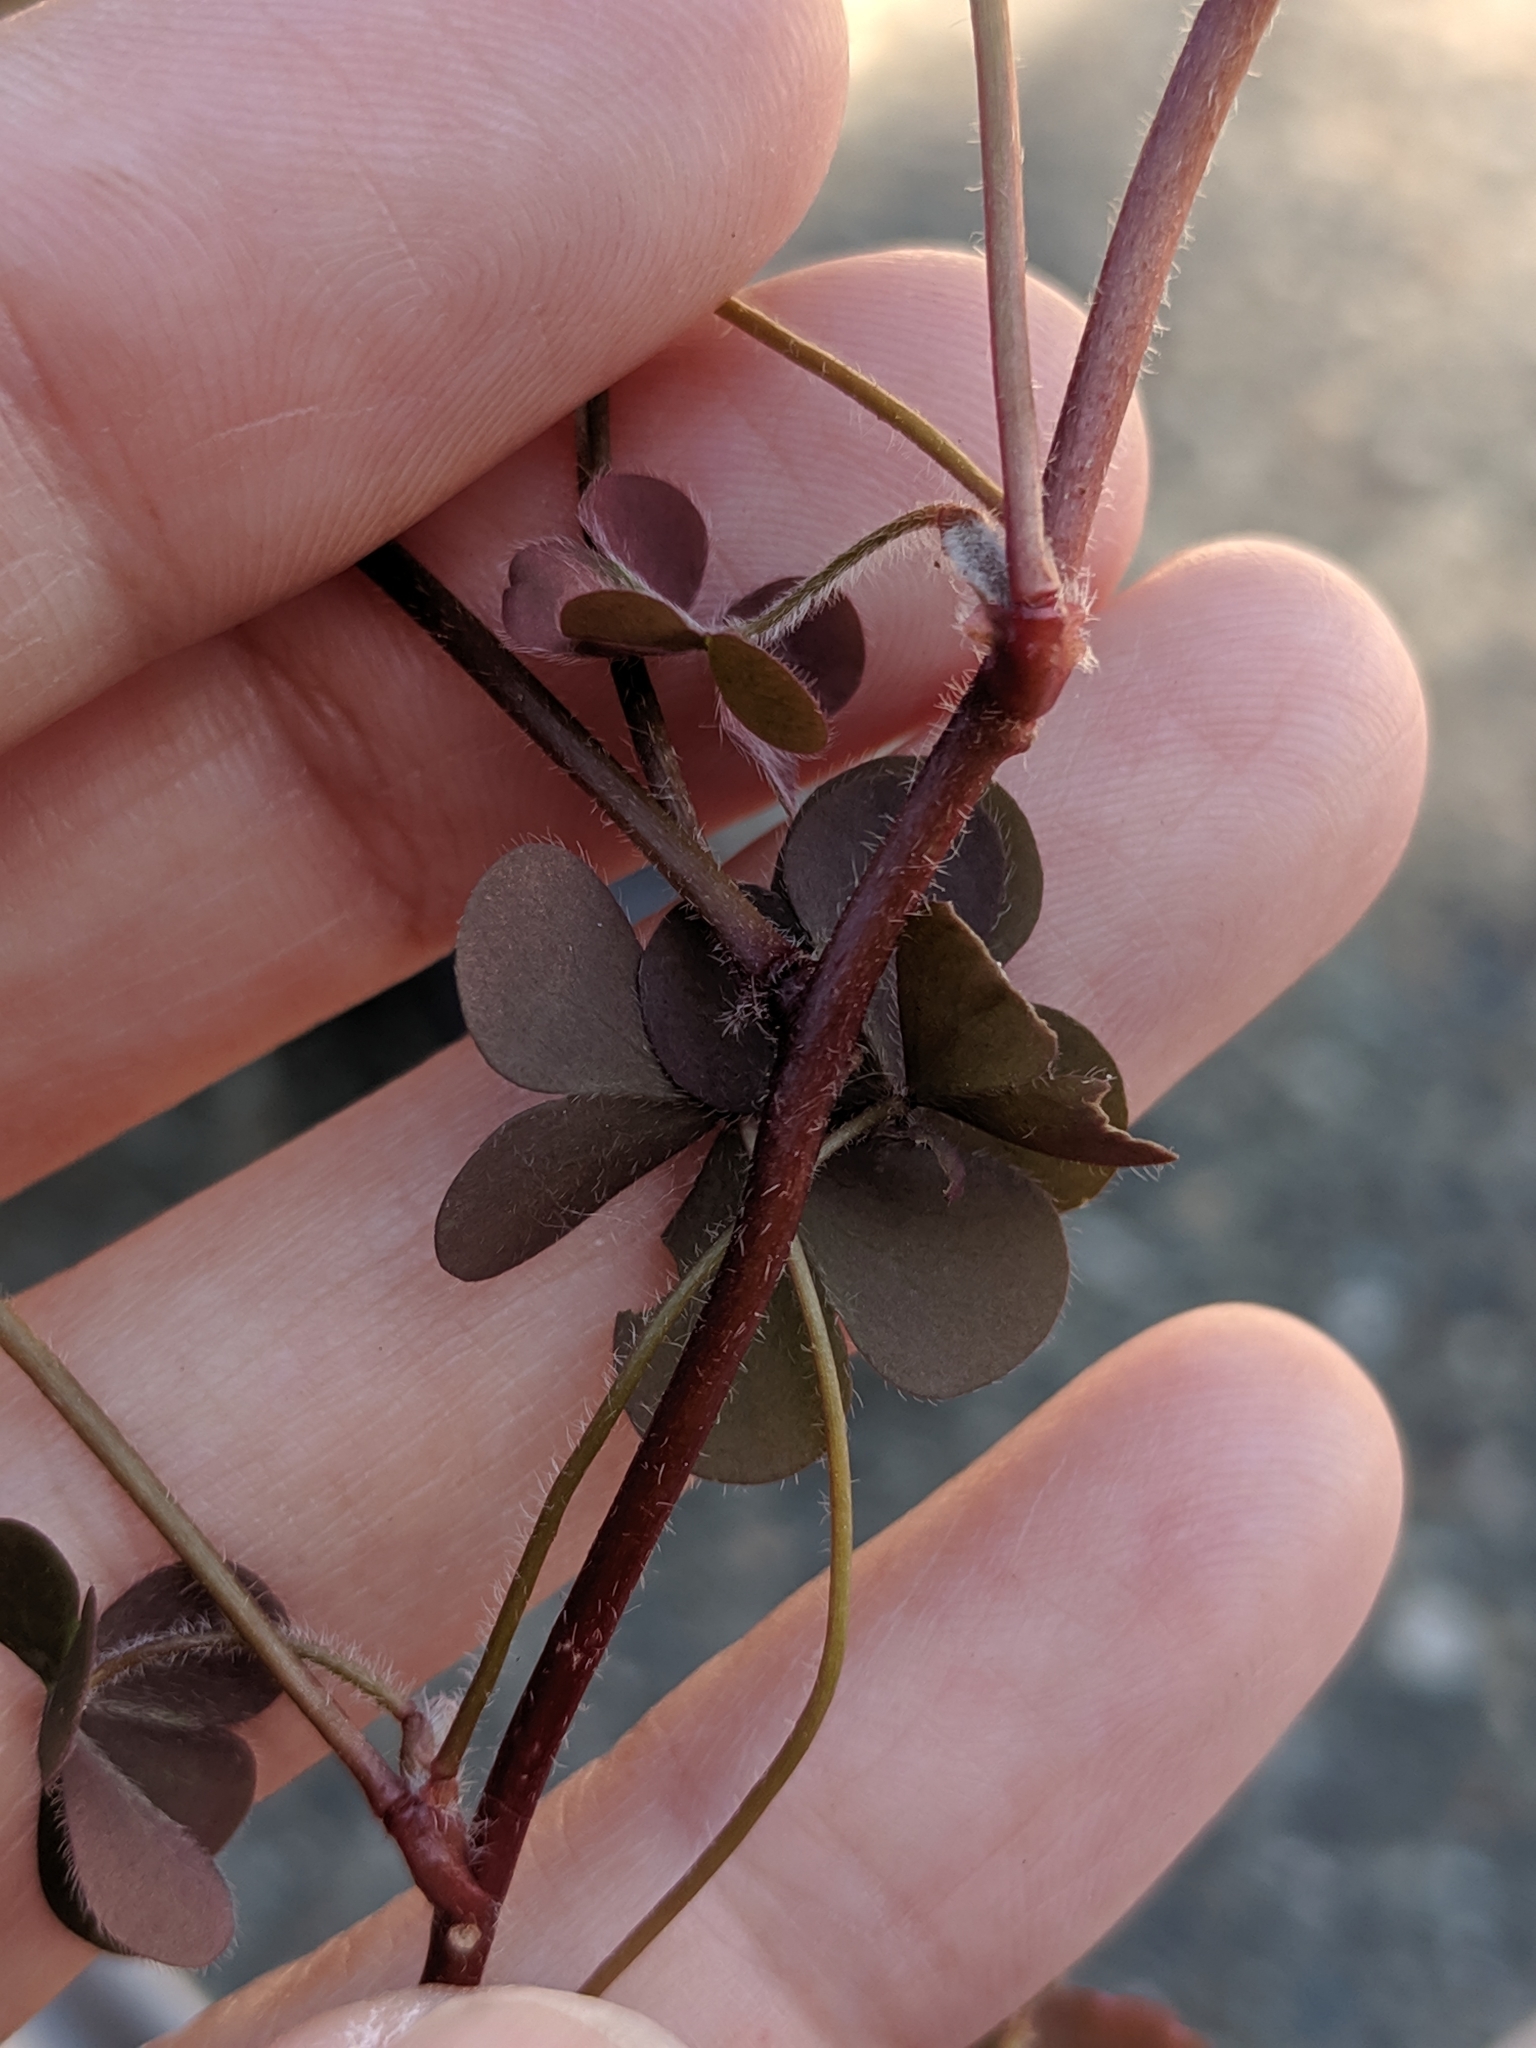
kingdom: Plantae
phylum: Tracheophyta
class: Magnoliopsida
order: Oxalidales
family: Oxalidaceae
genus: Oxalis
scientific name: Oxalis corniculata
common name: Procumbent yellow-sorrel
